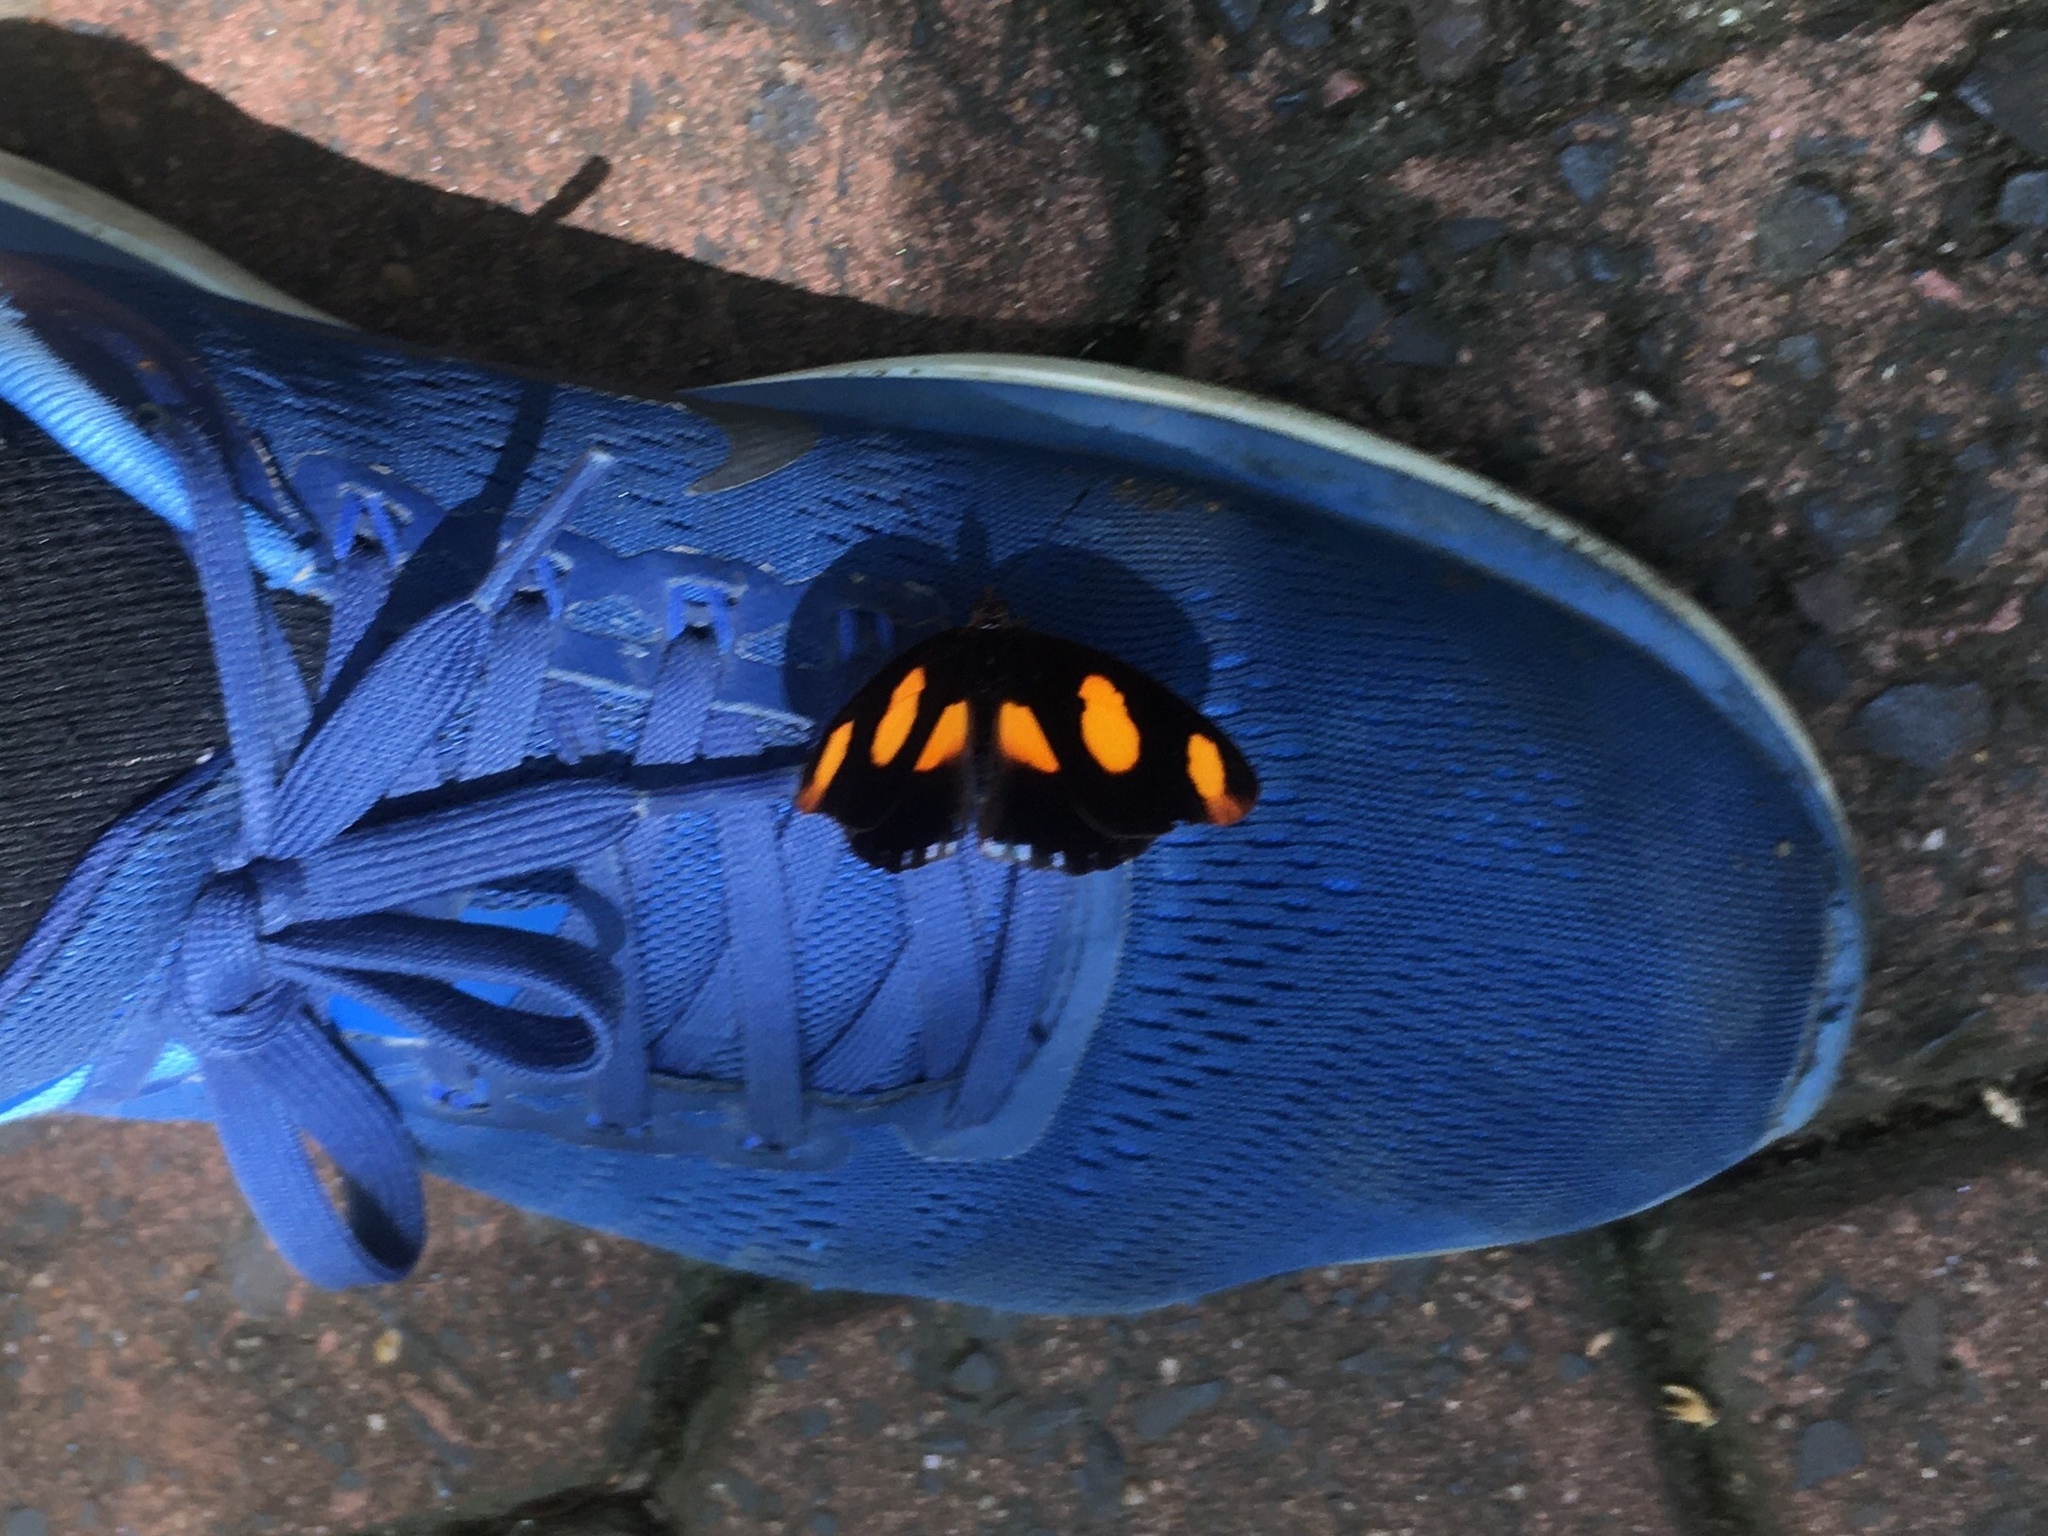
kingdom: Animalia
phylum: Arthropoda
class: Insecta
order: Lepidoptera
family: Nymphalidae
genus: Catonephele
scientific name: Catonephele numilia
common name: Blue-frosted banner
